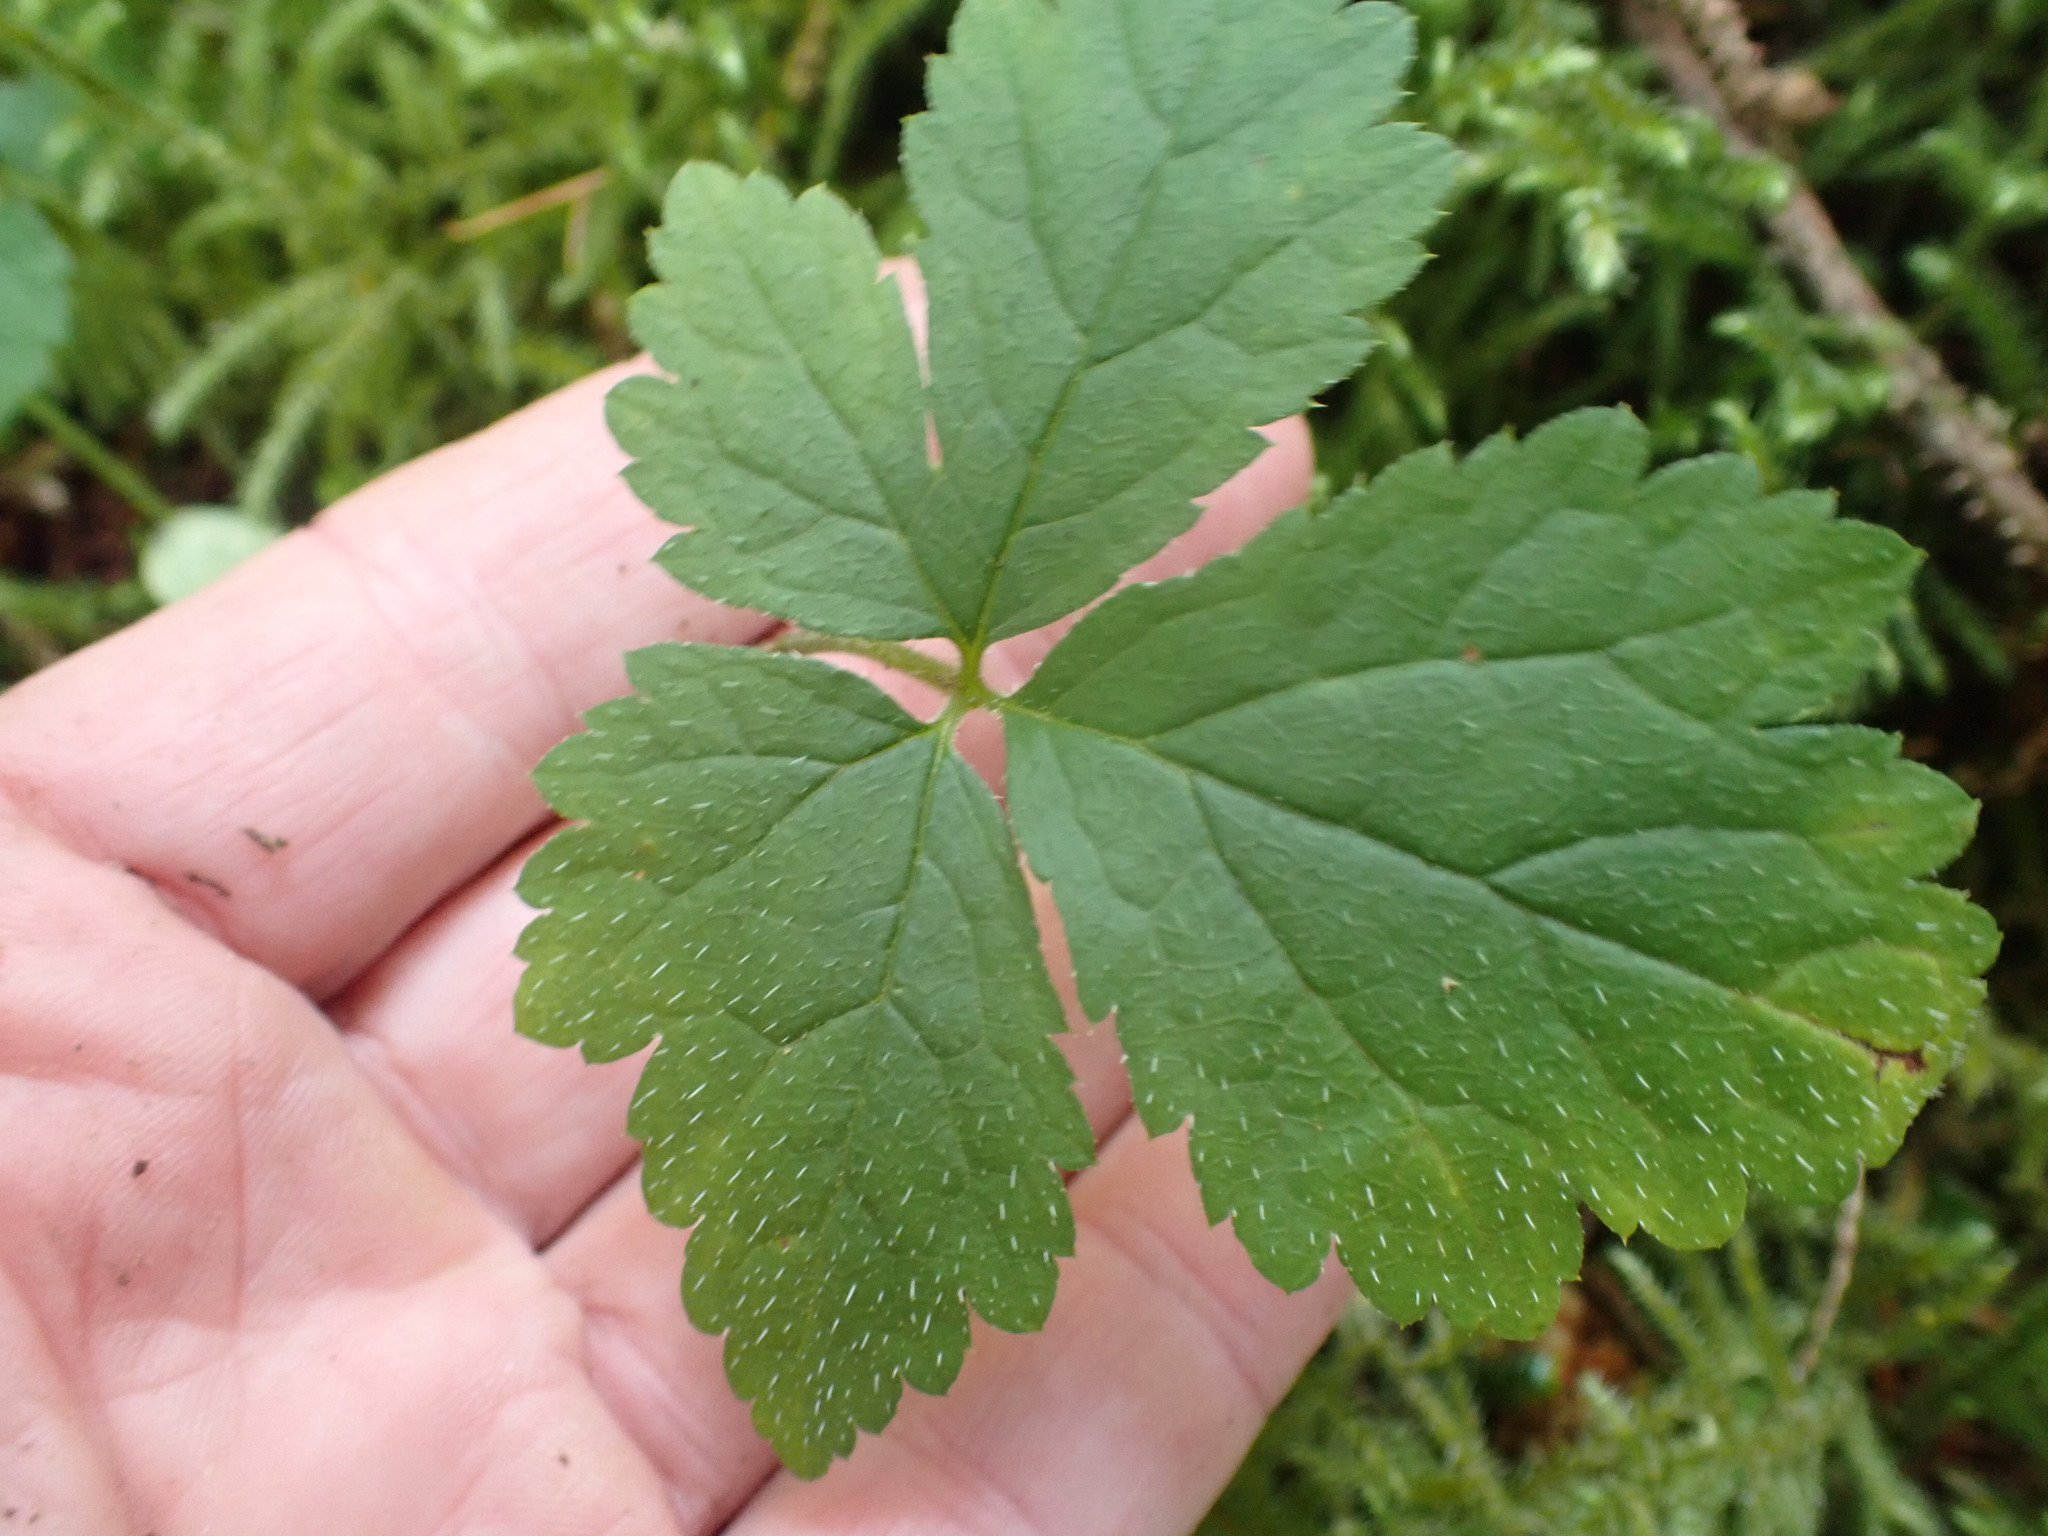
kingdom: Plantae
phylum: Tracheophyta
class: Magnoliopsida
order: Saxifragales
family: Saxifragaceae
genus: Tiarella
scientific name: Tiarella trifoliata
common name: Sugar-scoop
